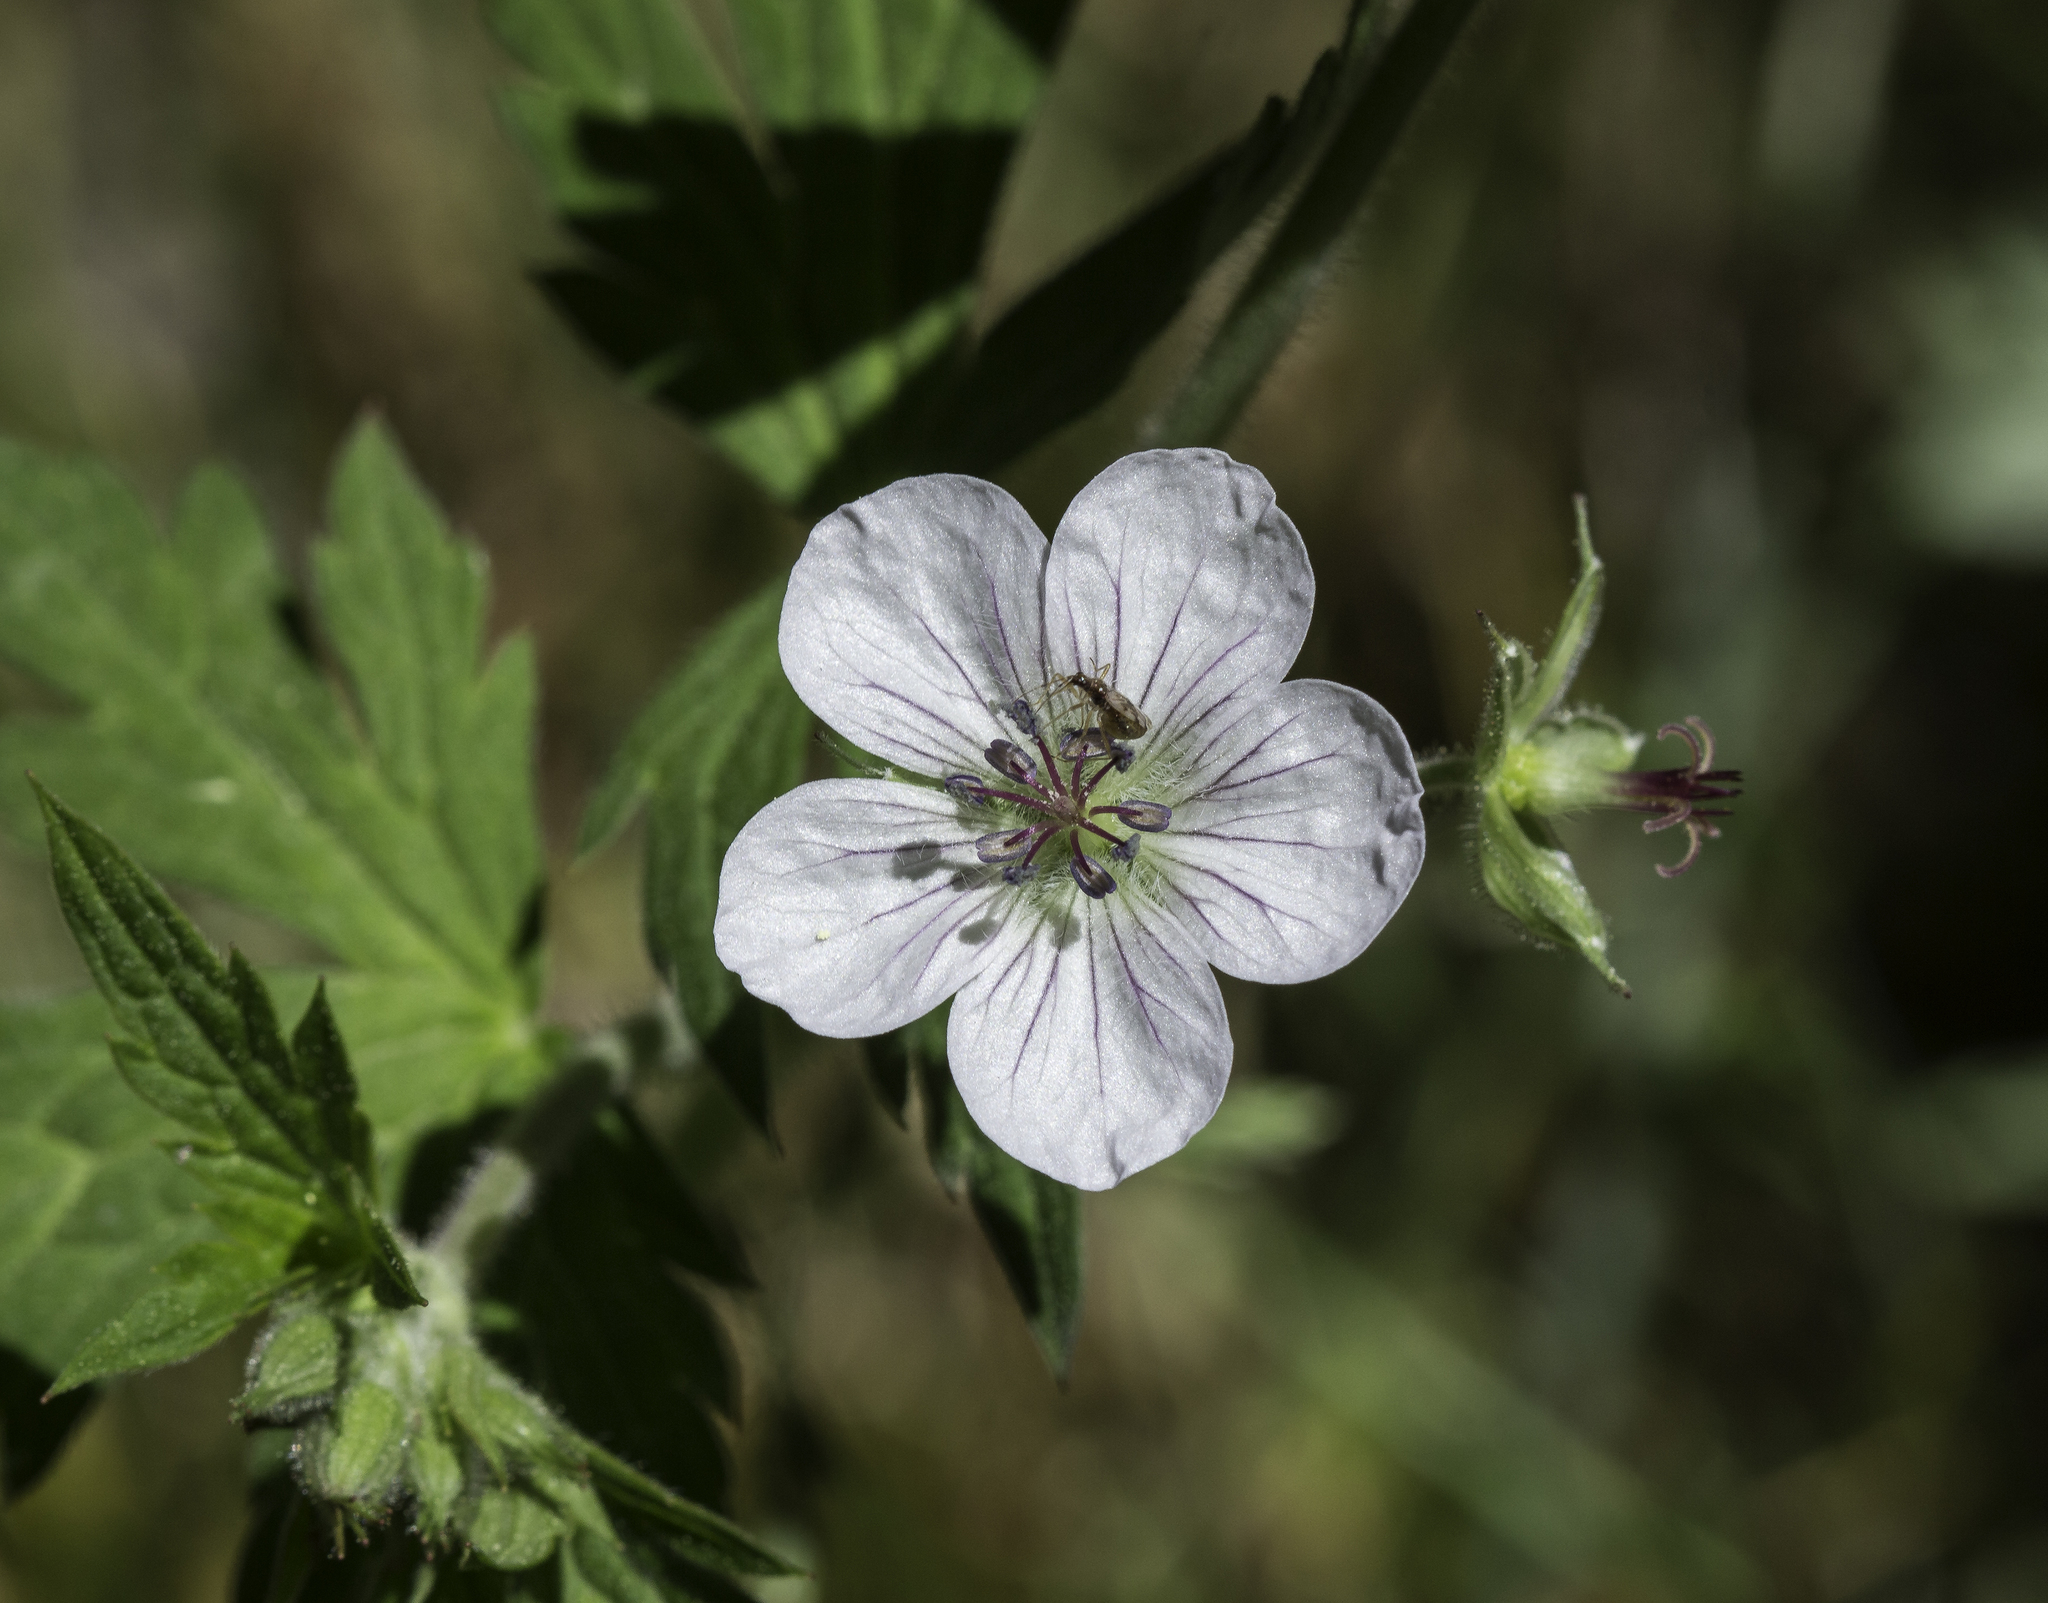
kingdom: Plantae
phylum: Tracheophyta
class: Magnoliopsida
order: Geraniales
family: Geraniaceae
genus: Geranium
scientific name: Geranium richardsonii
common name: Richardson's crane's-bill
